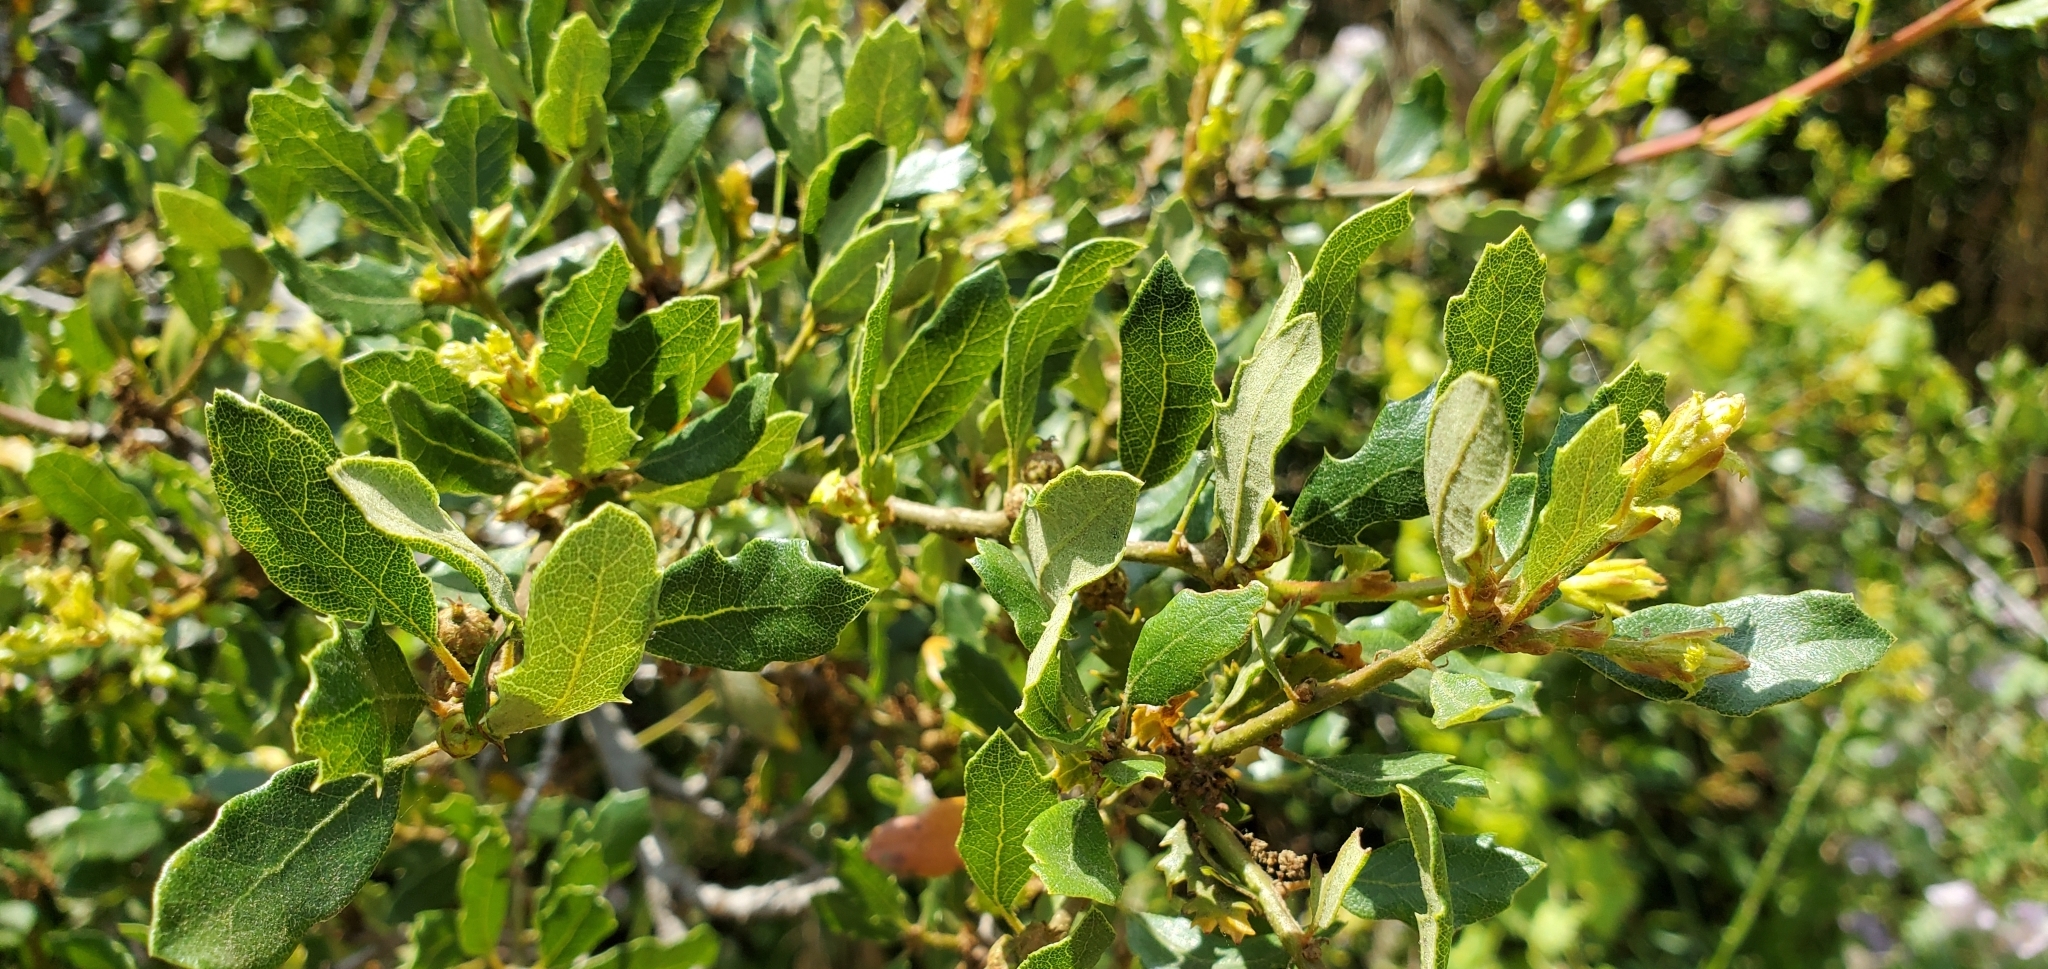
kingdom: Plantae
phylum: Tracheophyta
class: Magnoliopsida
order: Fagales
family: Fagaceae
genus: Quercus
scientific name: Quercus berberidifolia
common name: California scrub oak
